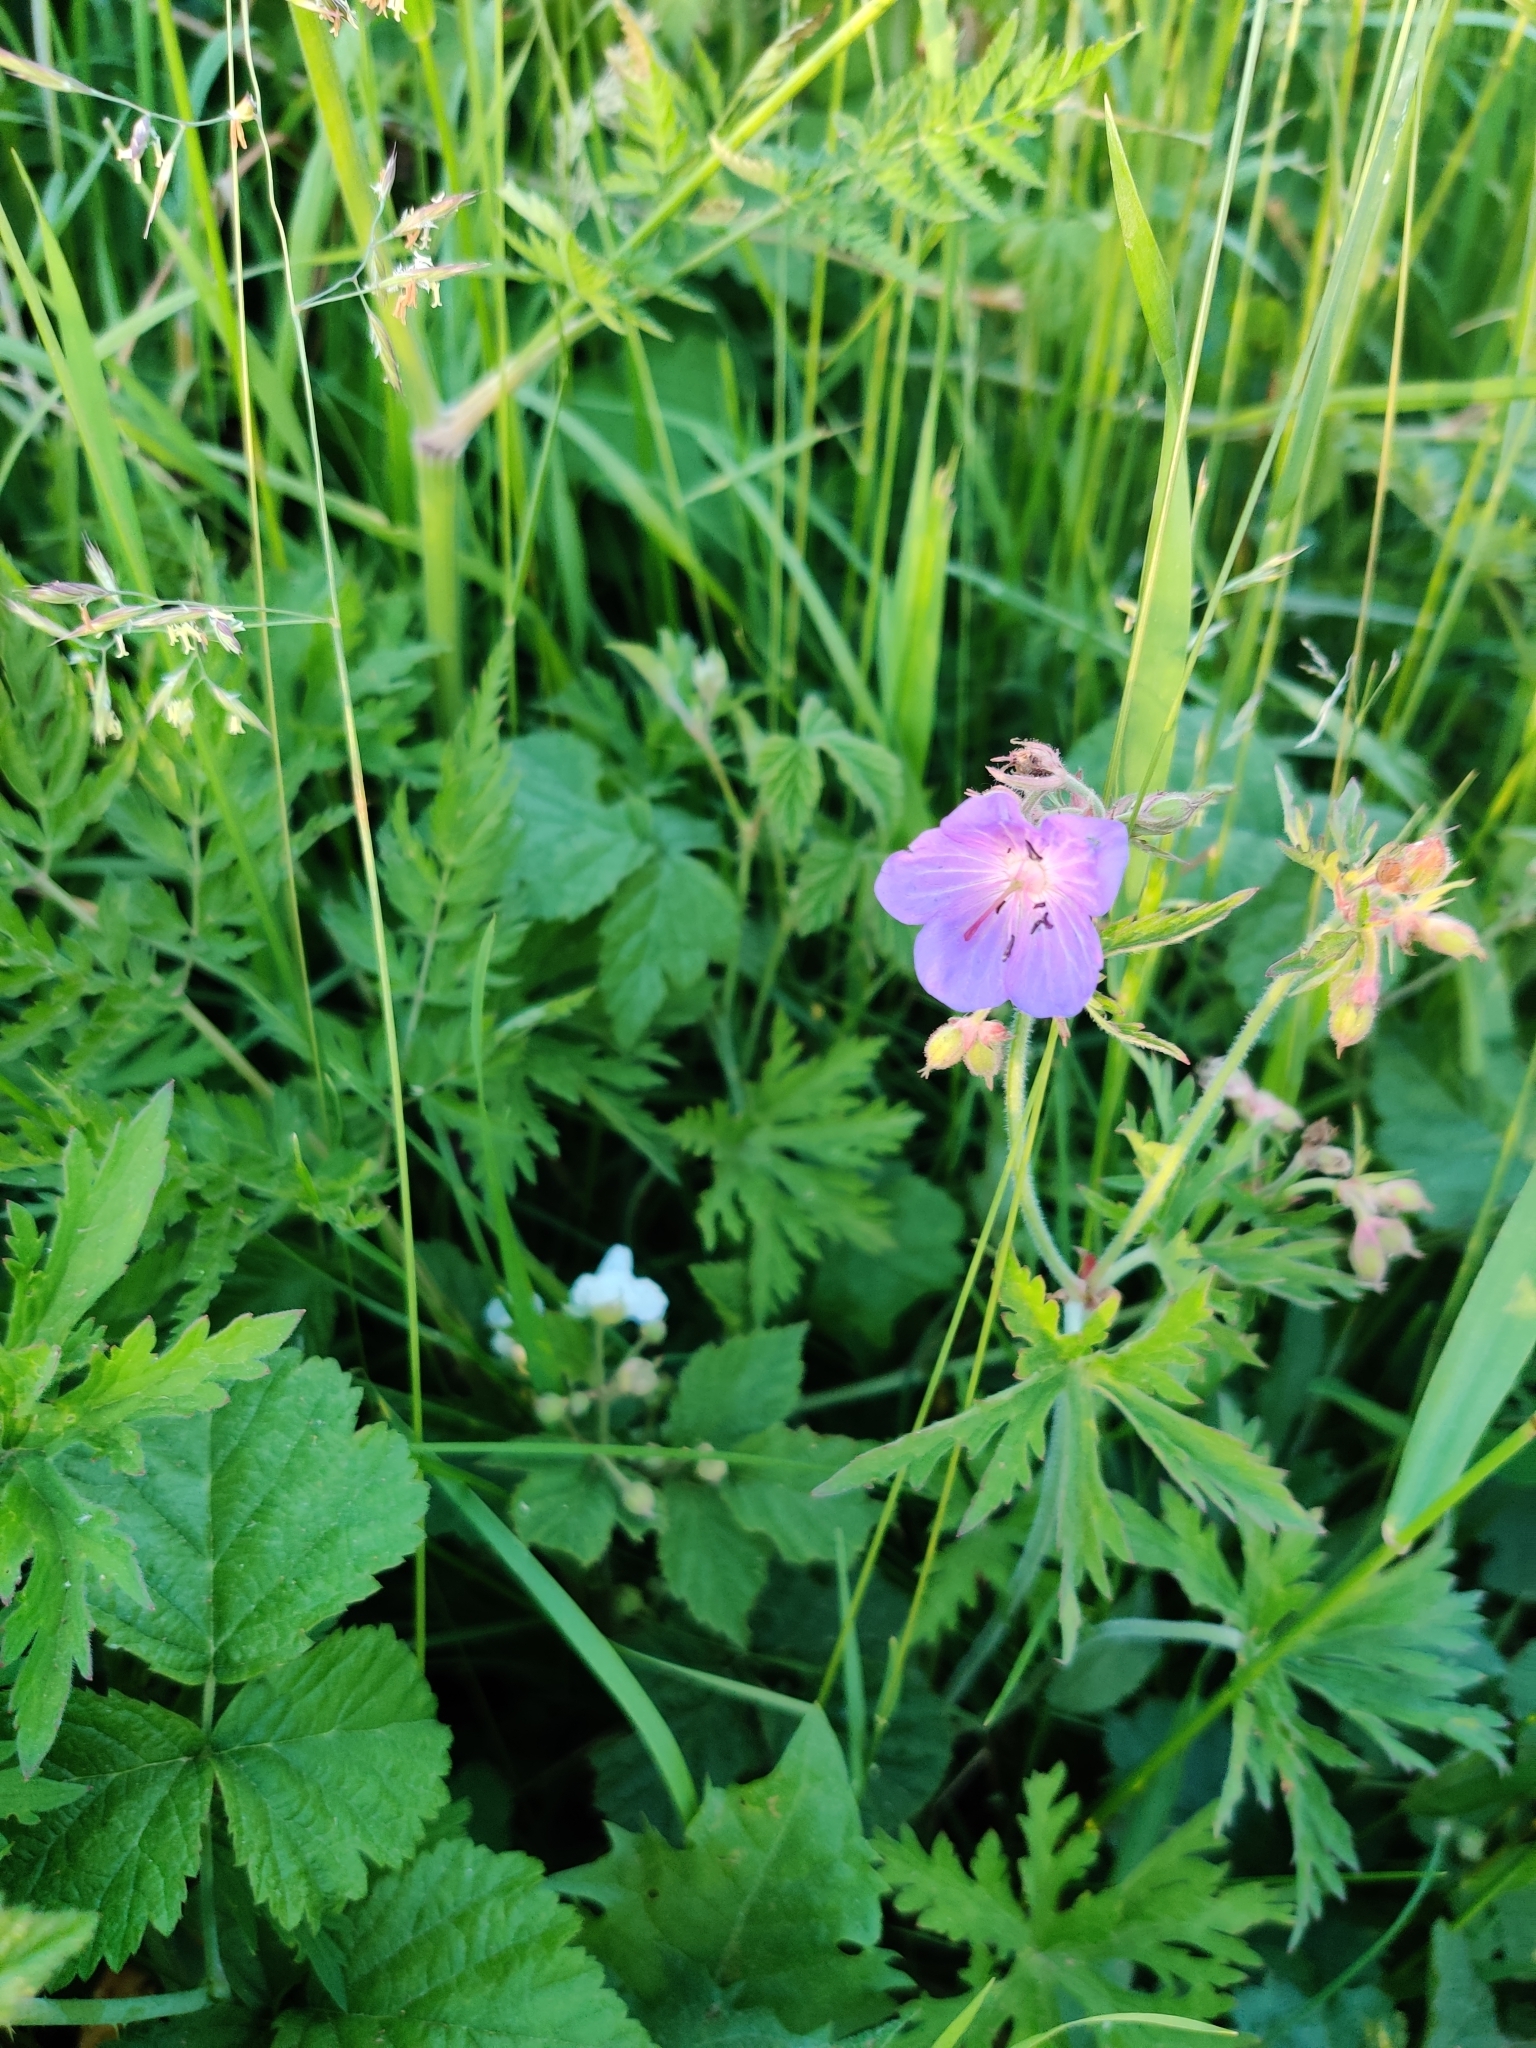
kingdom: Plantae
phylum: Tracheophyta
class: Magnoliopsida
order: Geraniales
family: Geraniaceae
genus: Geranium
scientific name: Geranium pratense
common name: Meadow crane's-bill
